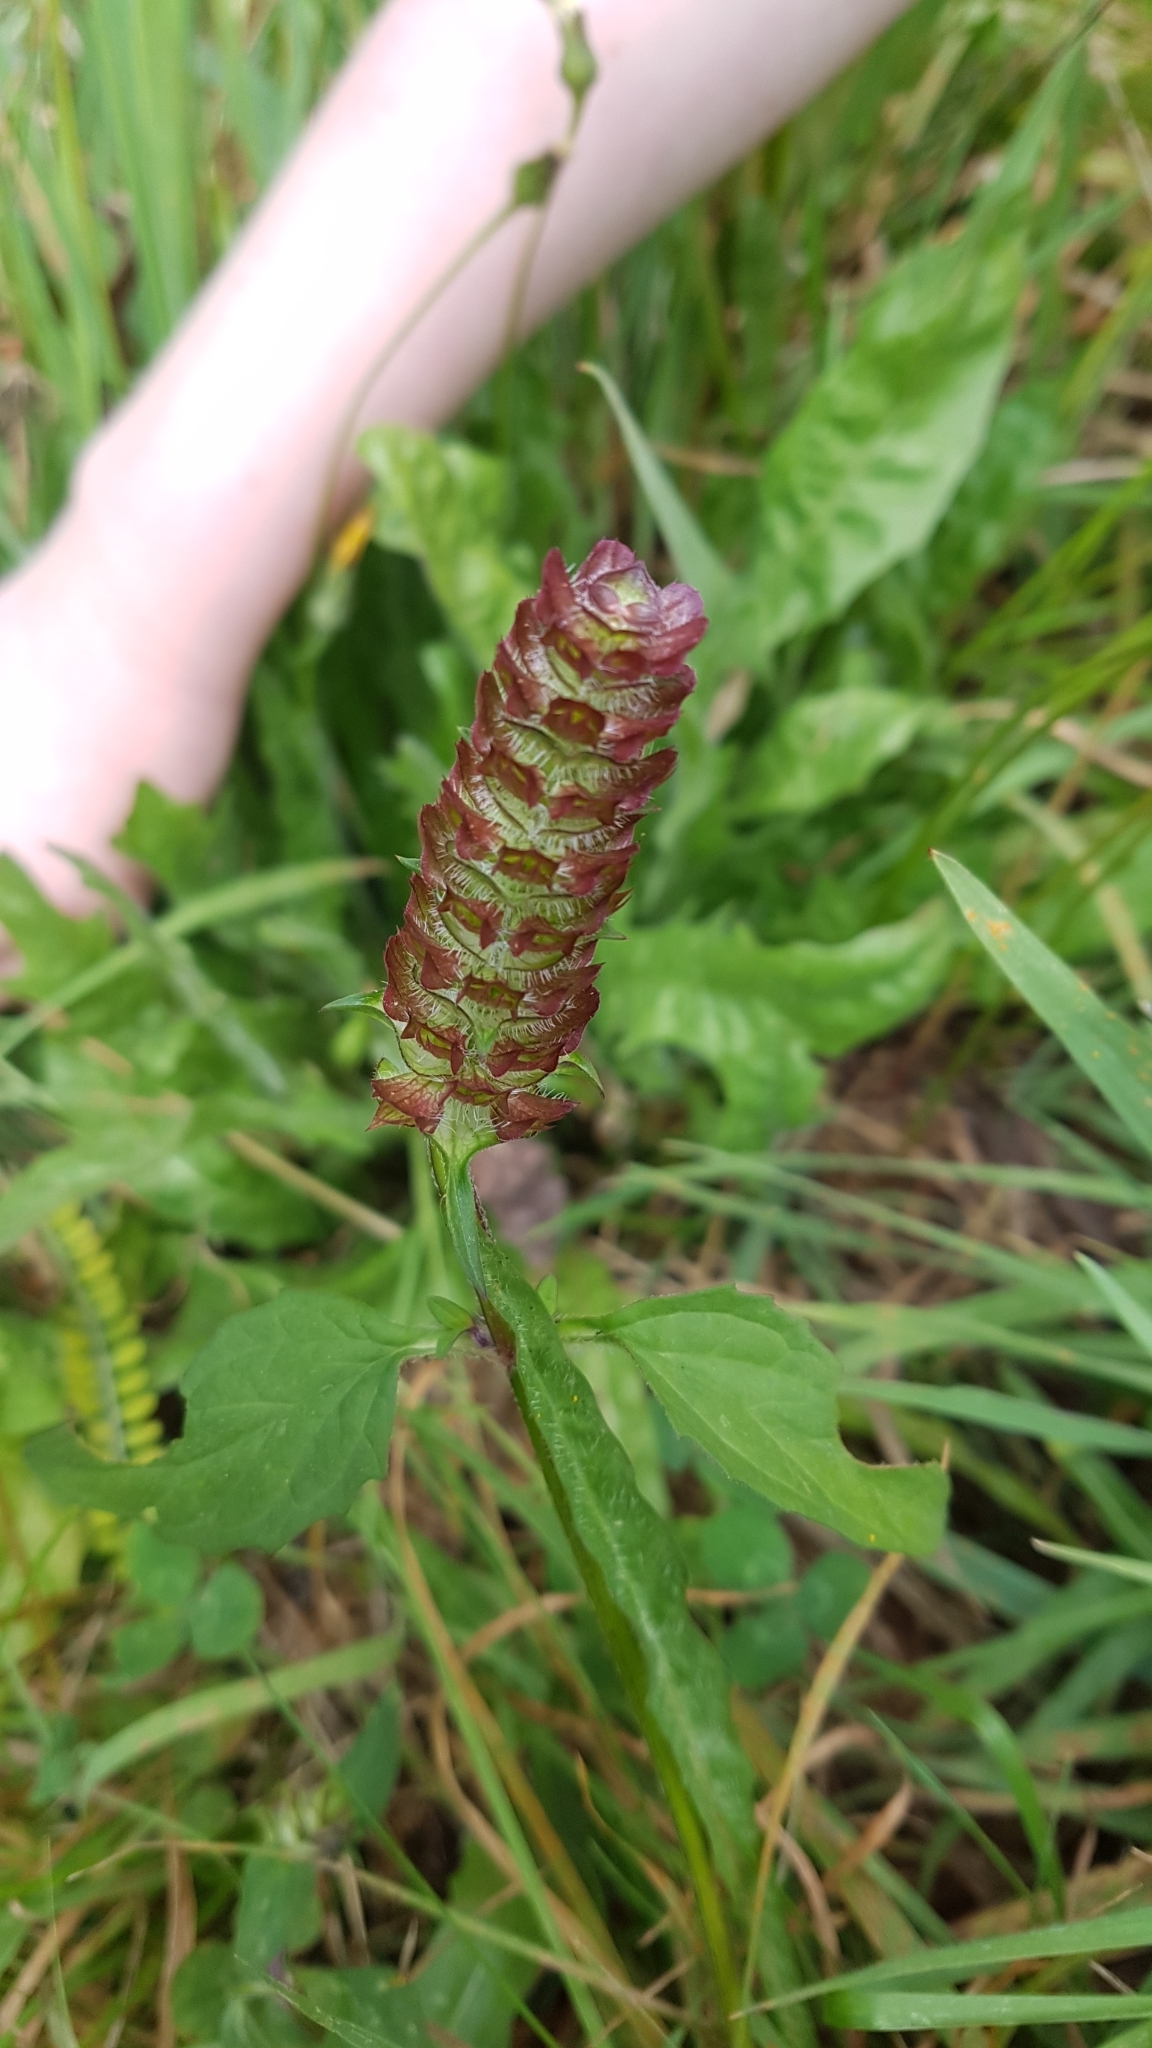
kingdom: Plantae
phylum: Tracheophyta
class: Magnoliopsida
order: Lamiales
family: Lamiaceae
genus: Prunella
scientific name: Prunella vulgaris
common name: Heal-all
